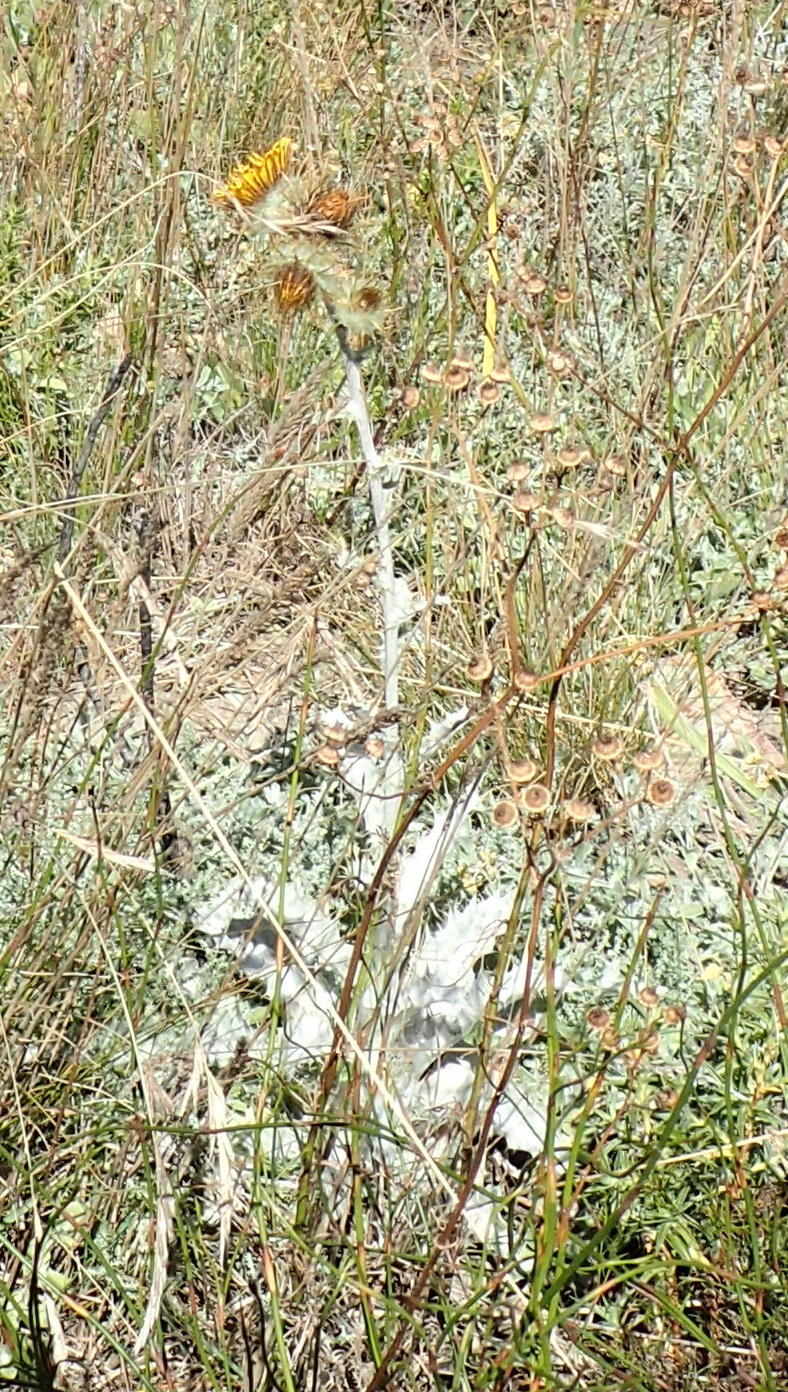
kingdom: Plantae
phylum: Tracheophyta
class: Magnoliopsida
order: Asterales
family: Asteraceae
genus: Berkheya
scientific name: Berkheya francisci
